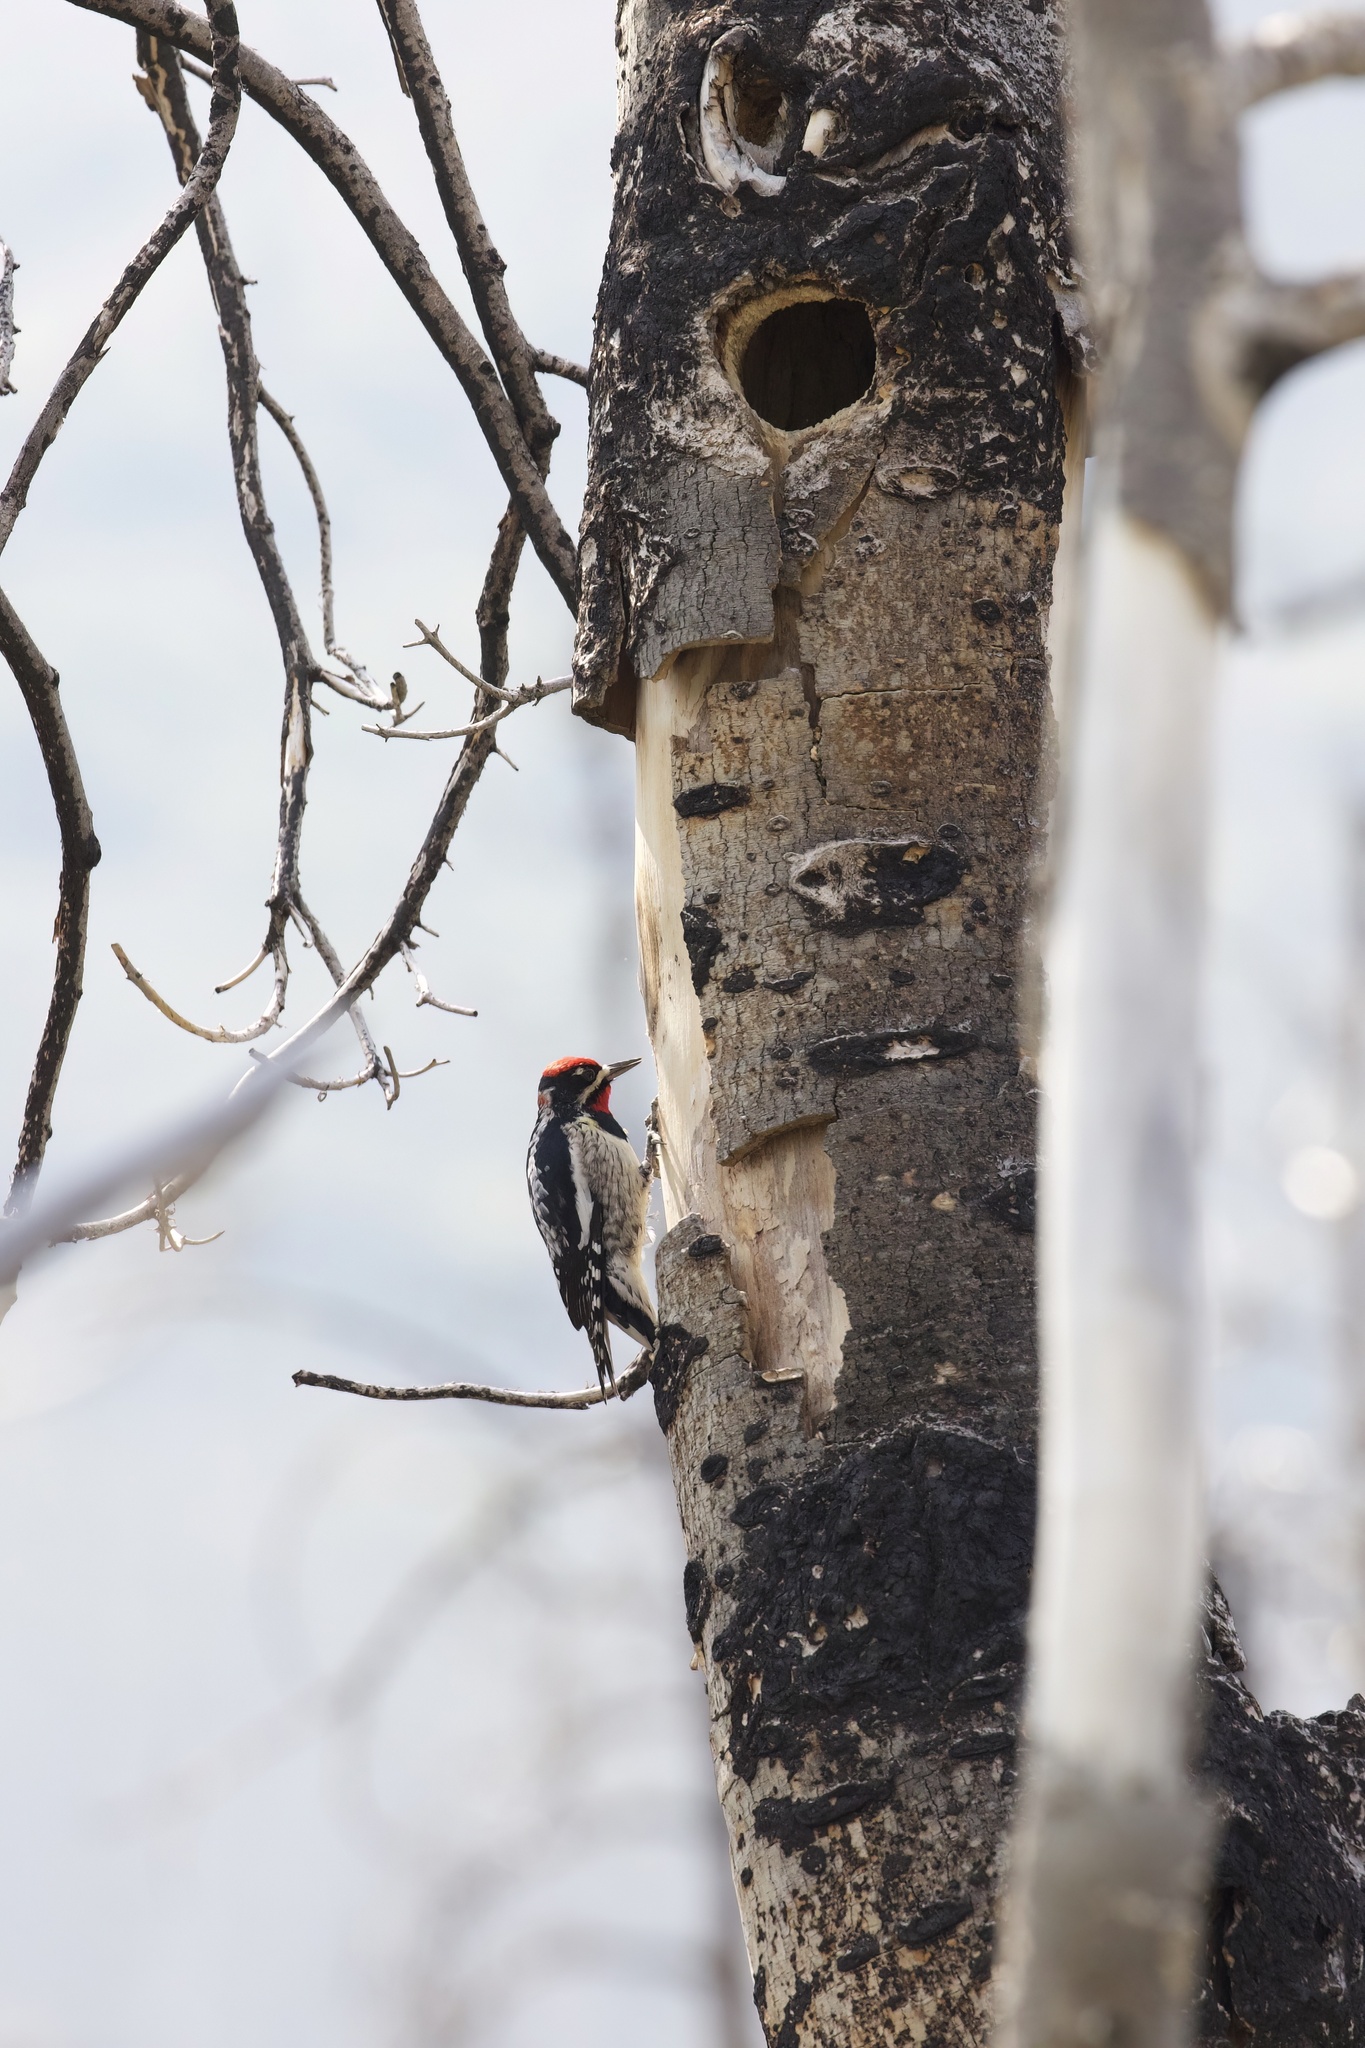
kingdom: Animalia
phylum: Chordata
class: Aves
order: Piciformes
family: Picidae
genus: Sphyrapicus
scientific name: Sphyrapicus nuchalis
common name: Red-naped sapsucker
